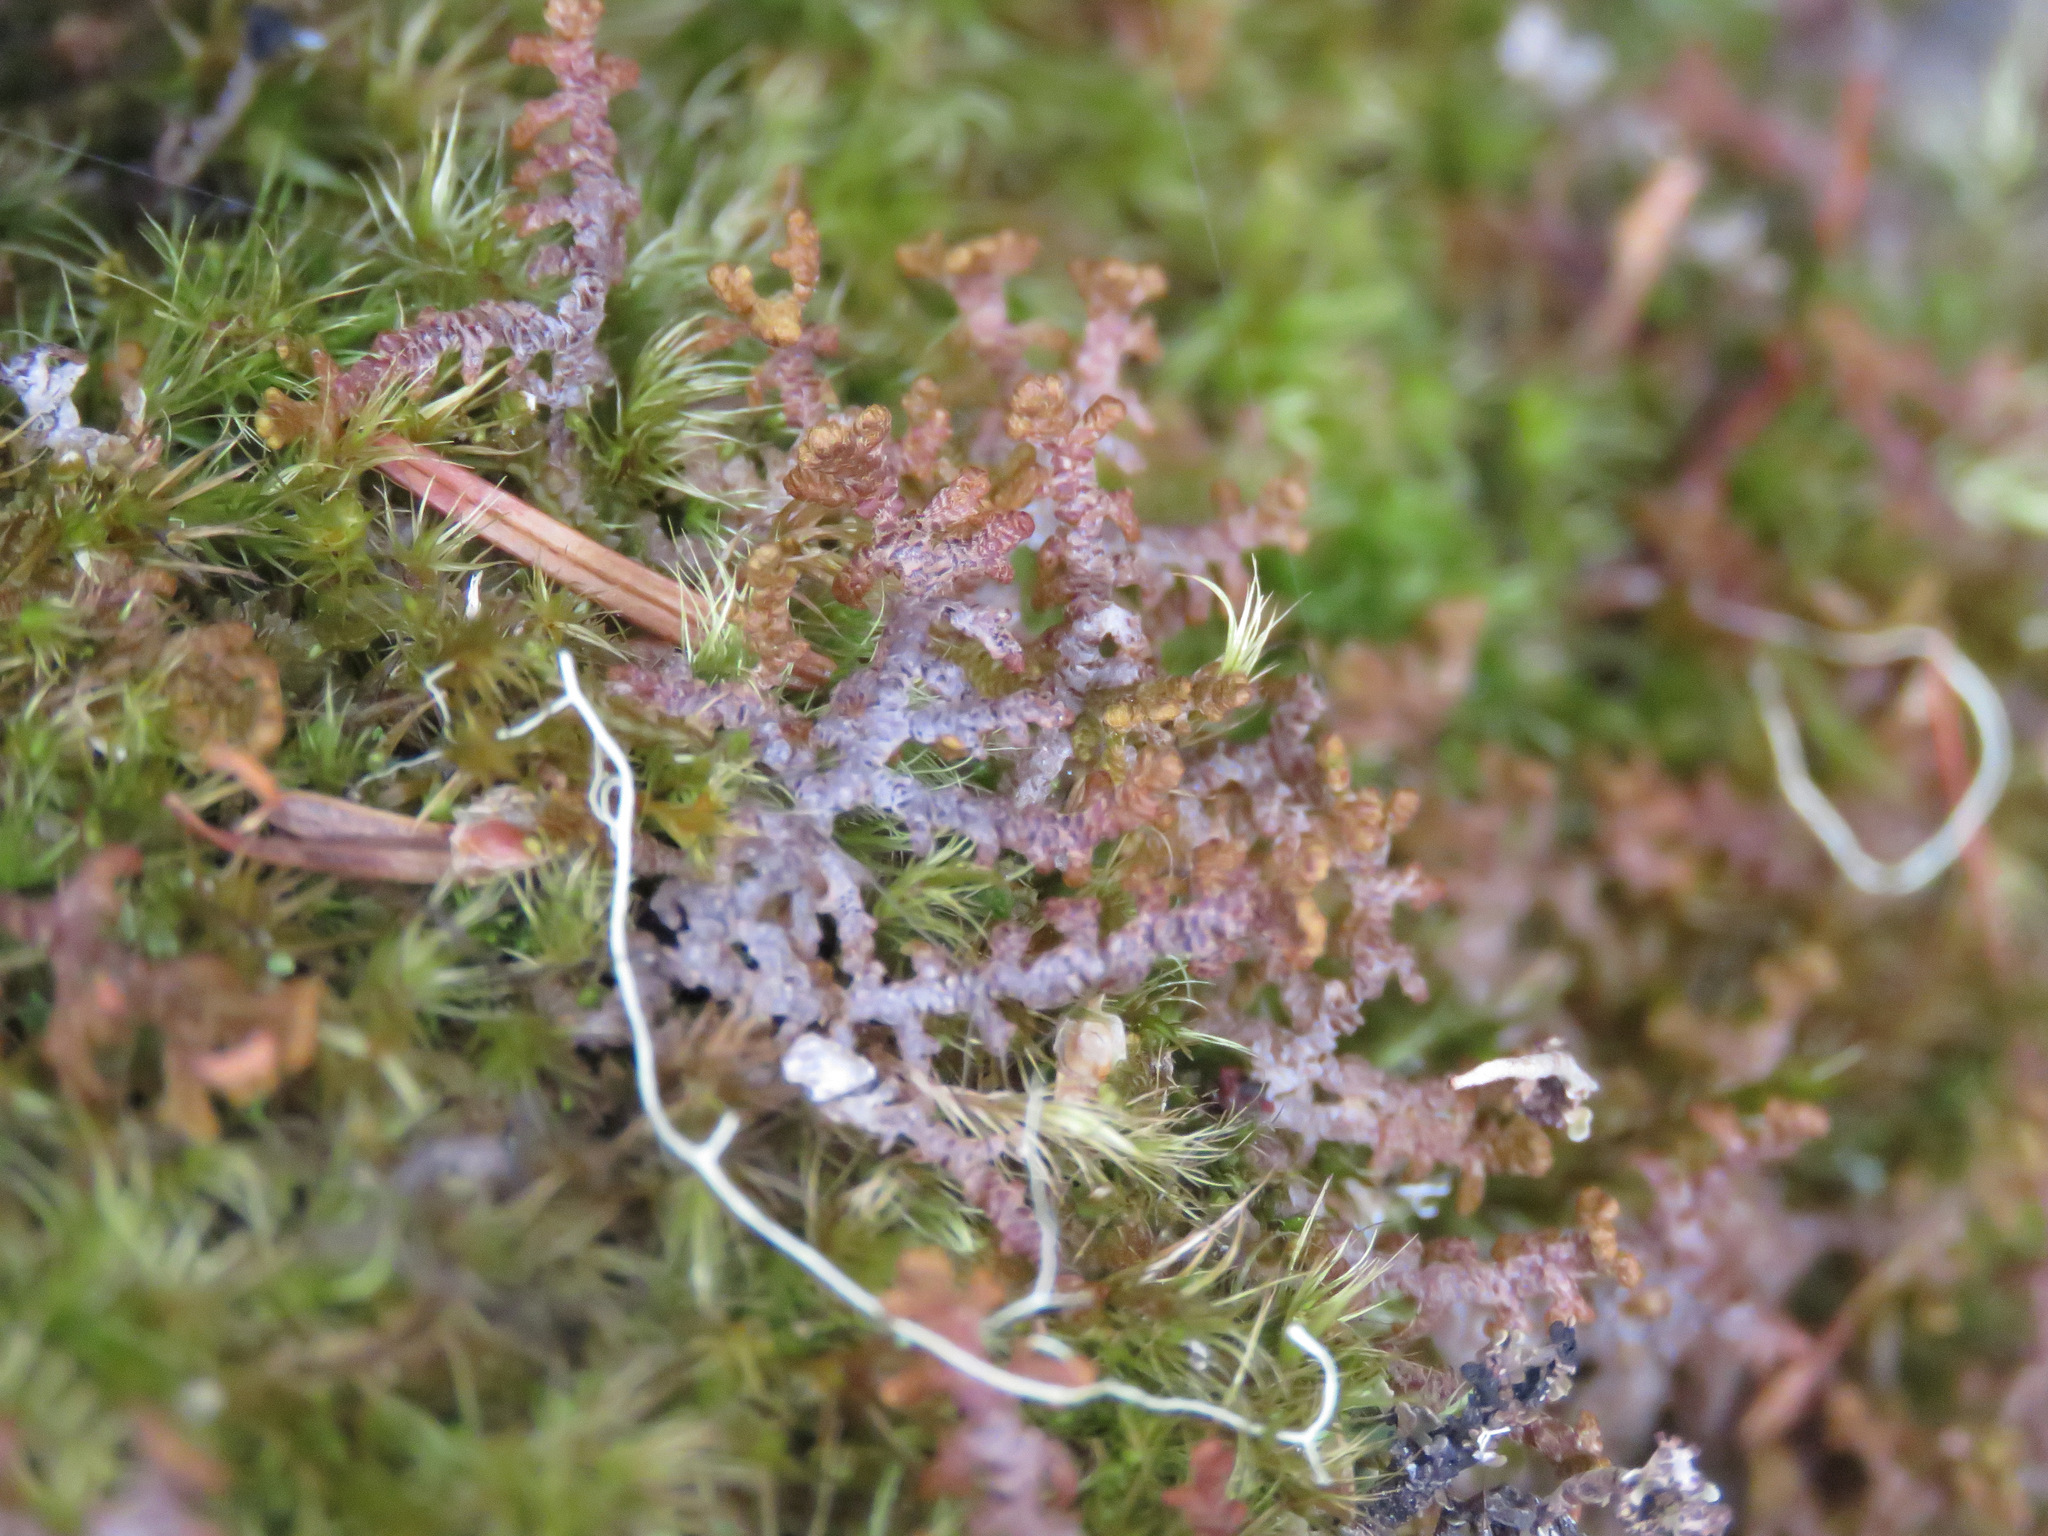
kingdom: Plantae
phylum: Marchantiophyta
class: Jungermanniopsida
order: Ptilidiales
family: Ptilidiaceae
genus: Ptilidium
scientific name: Ptilidium ciliare
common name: Ciliate fringewort
